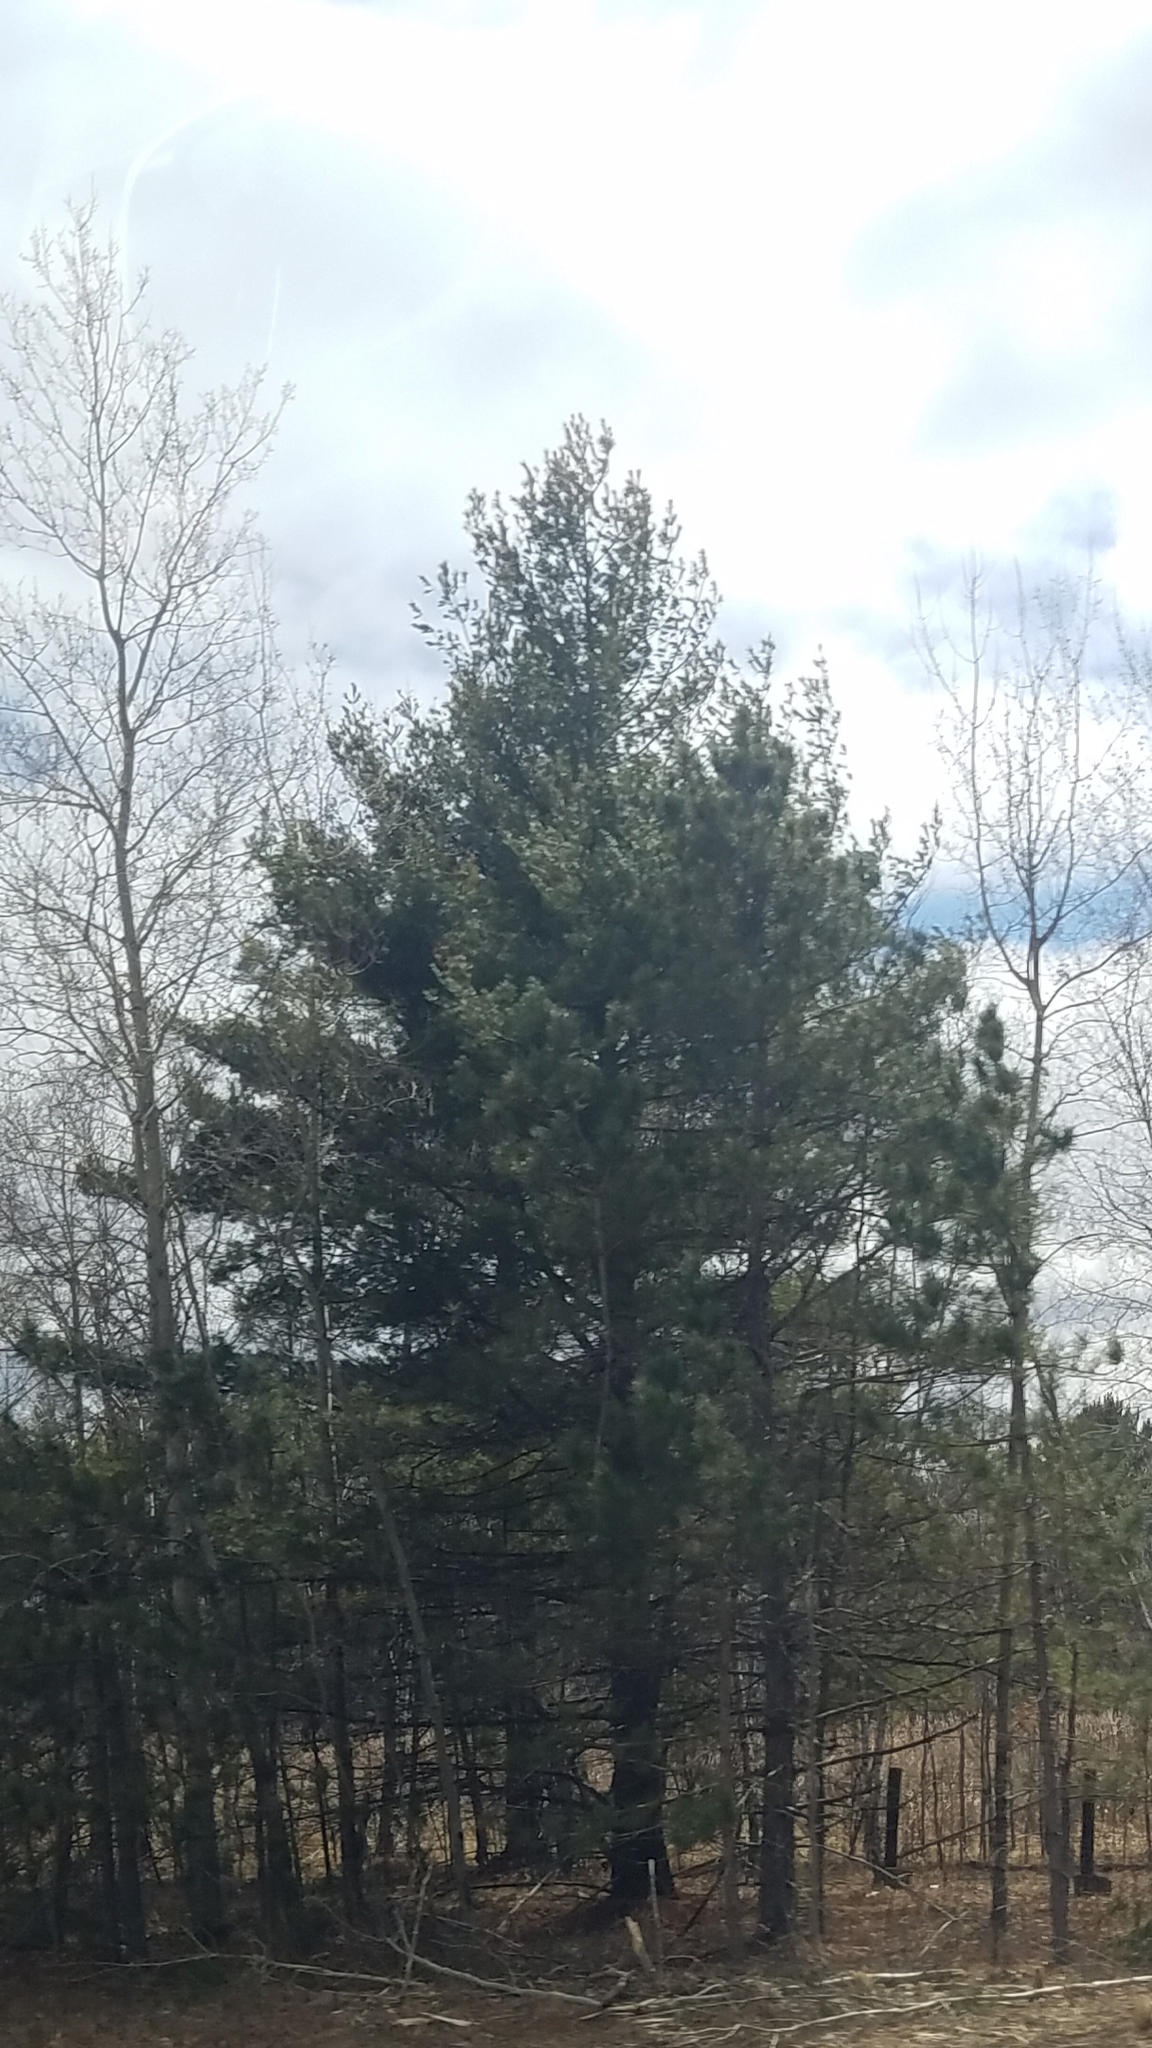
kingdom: Plantae
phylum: Tracheophyta
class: Pinopsida
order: Pinales
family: Pinaceae
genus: Pinus
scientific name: Pinus strobus
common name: Weymouth pine
